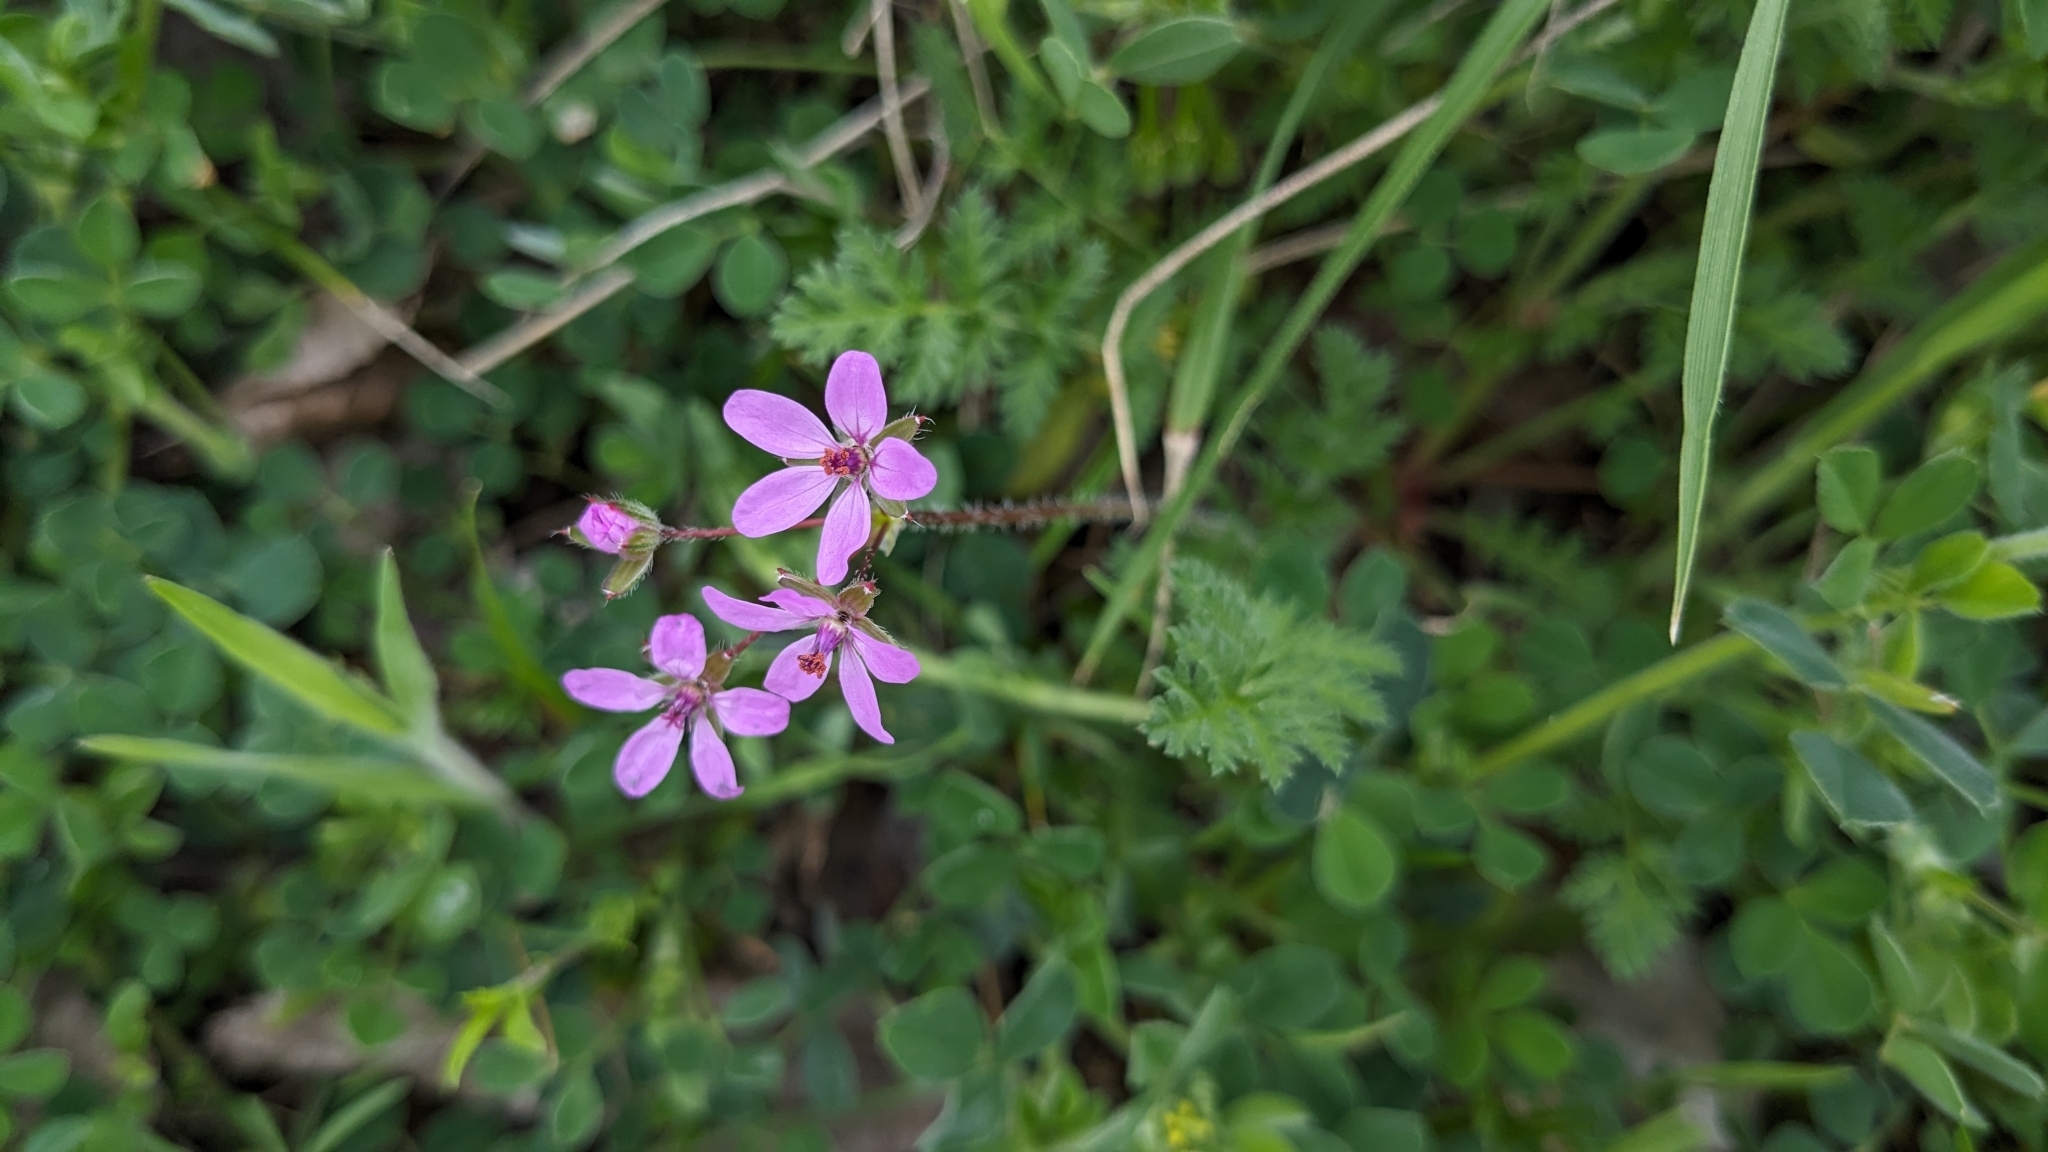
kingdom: Plantae
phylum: Tracheophyta
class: Magnoliopsida
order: Geraniales
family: Geraniaceae
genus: Erodium
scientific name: Erodium cicutarium
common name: Common stork's-bill
